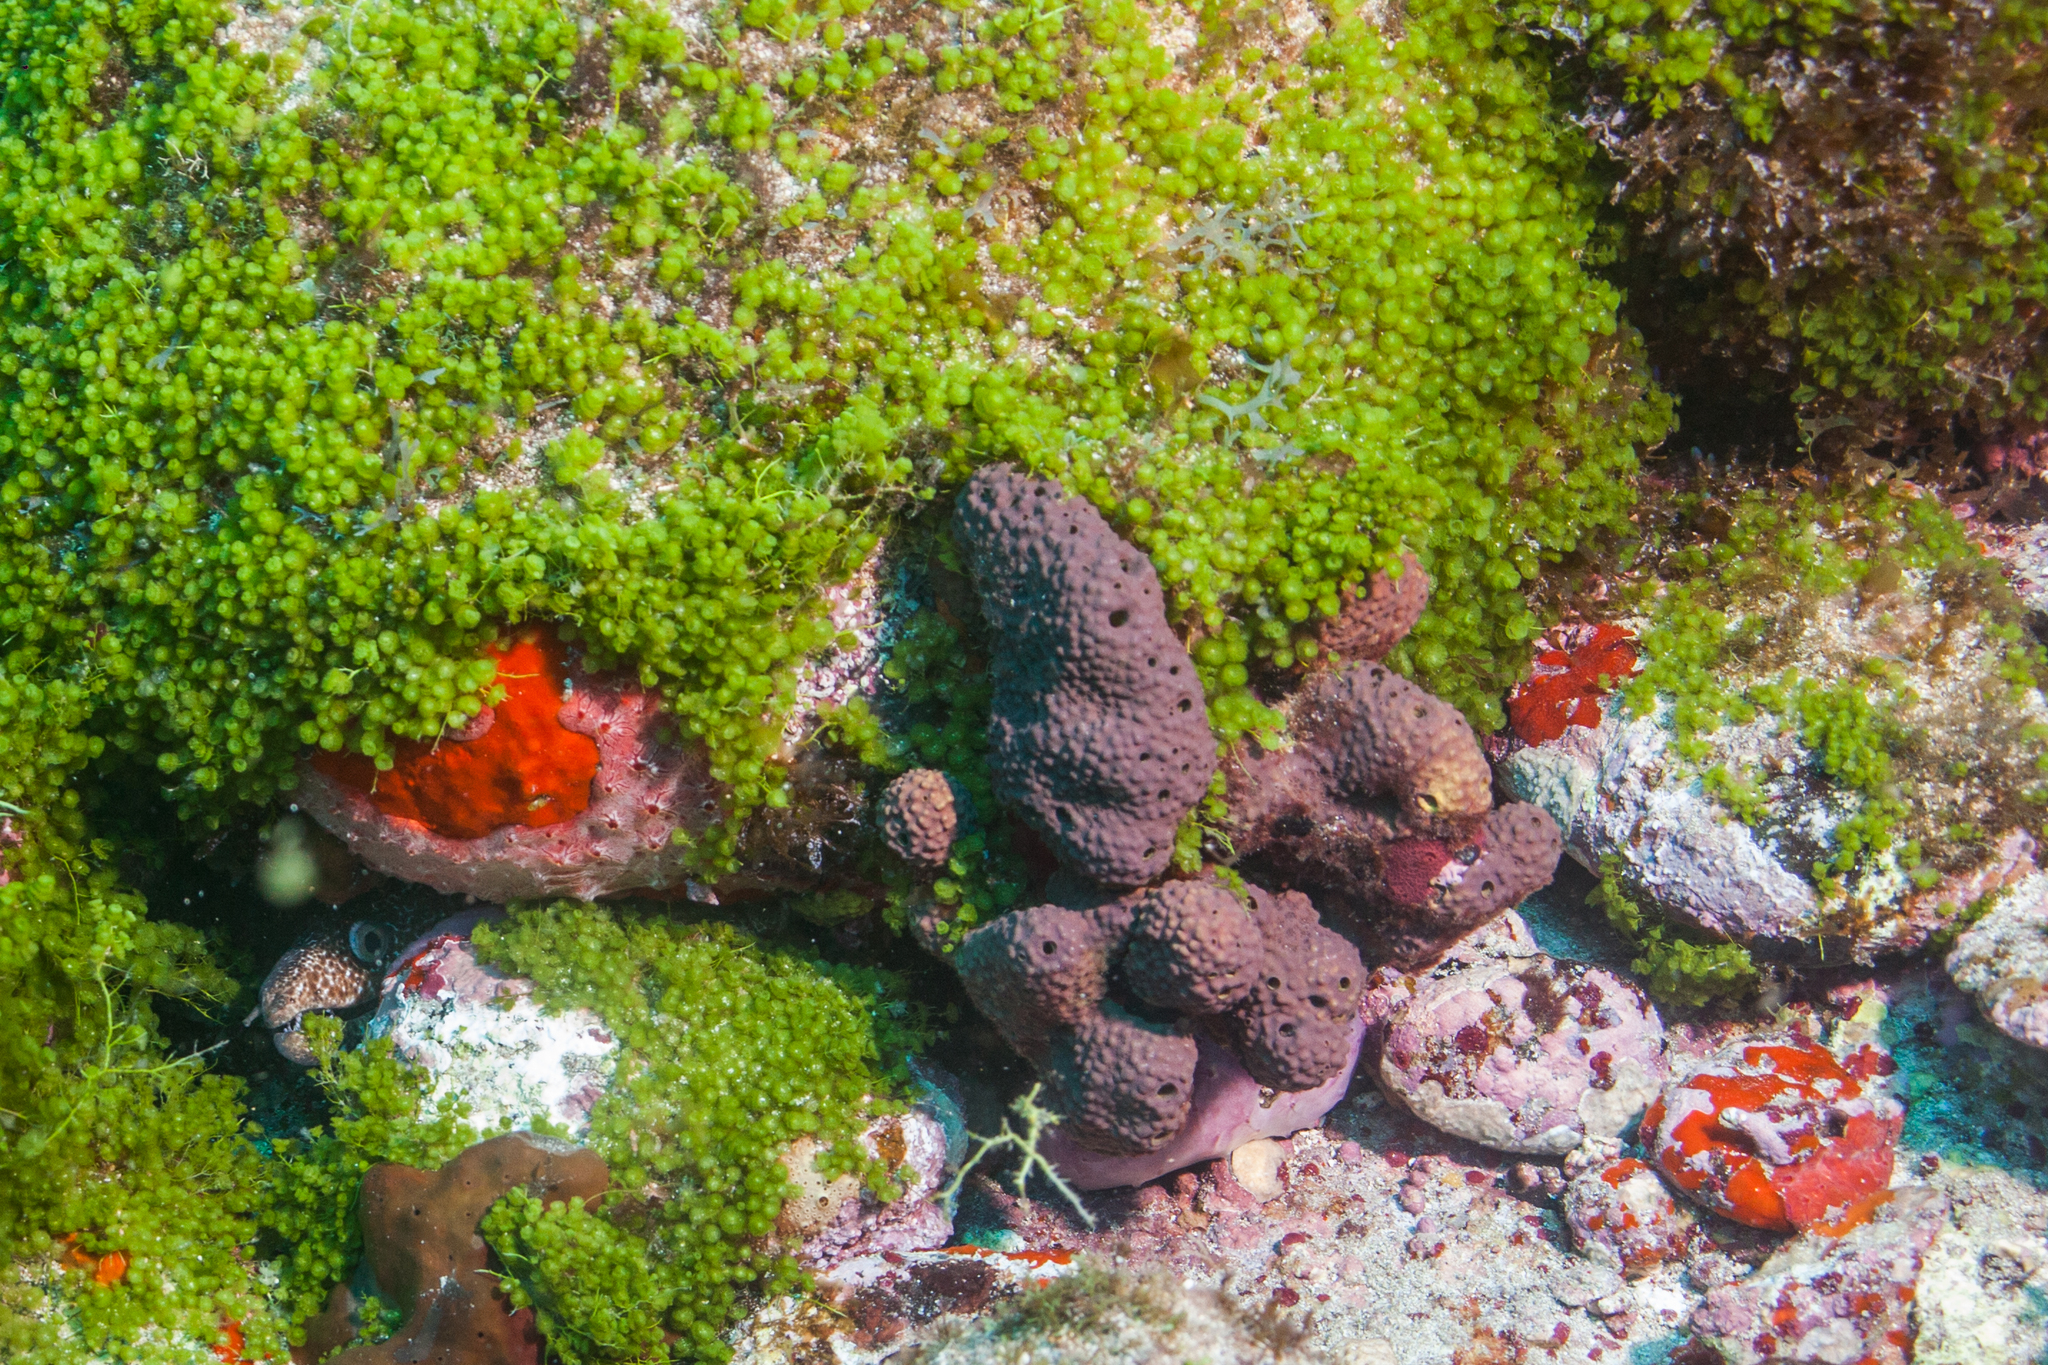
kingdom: Animalia
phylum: Porifera
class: Demospongiae
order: Verongiida
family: Aplysinidae
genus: Aiolochroia
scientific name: Aiolochroia crassa
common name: Branching tube sponge
